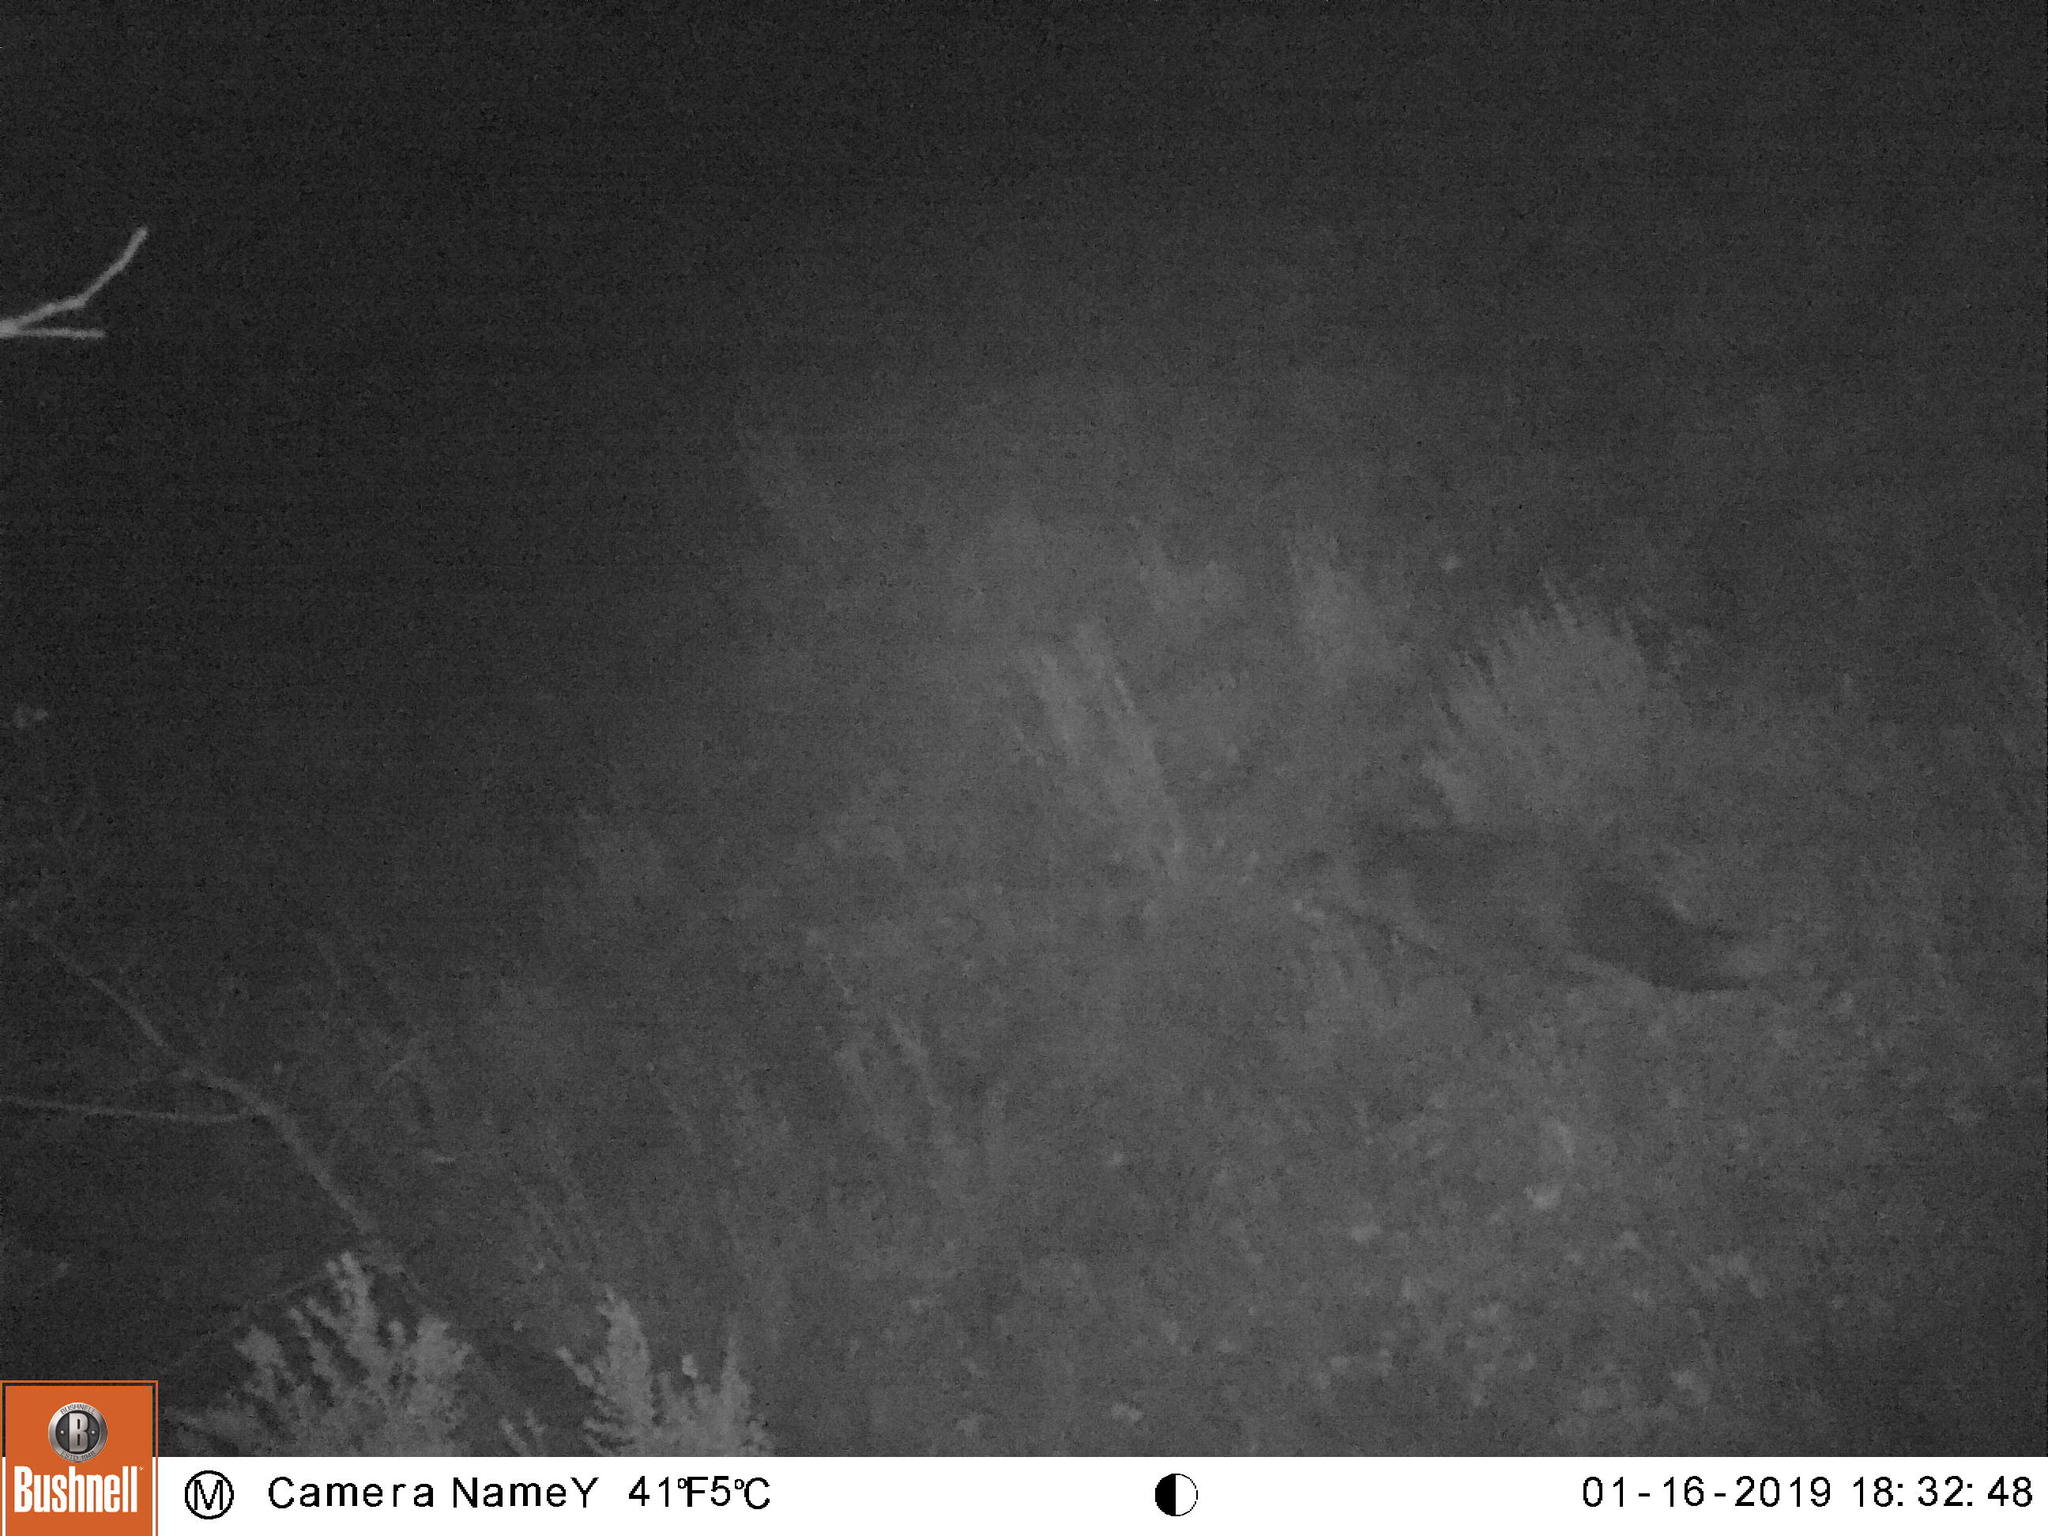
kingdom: Animalia
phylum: Chordata
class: Mammalia
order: Carnivora
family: Canidae
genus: Vulpes
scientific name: Vulpes vulpes
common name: Red fox
